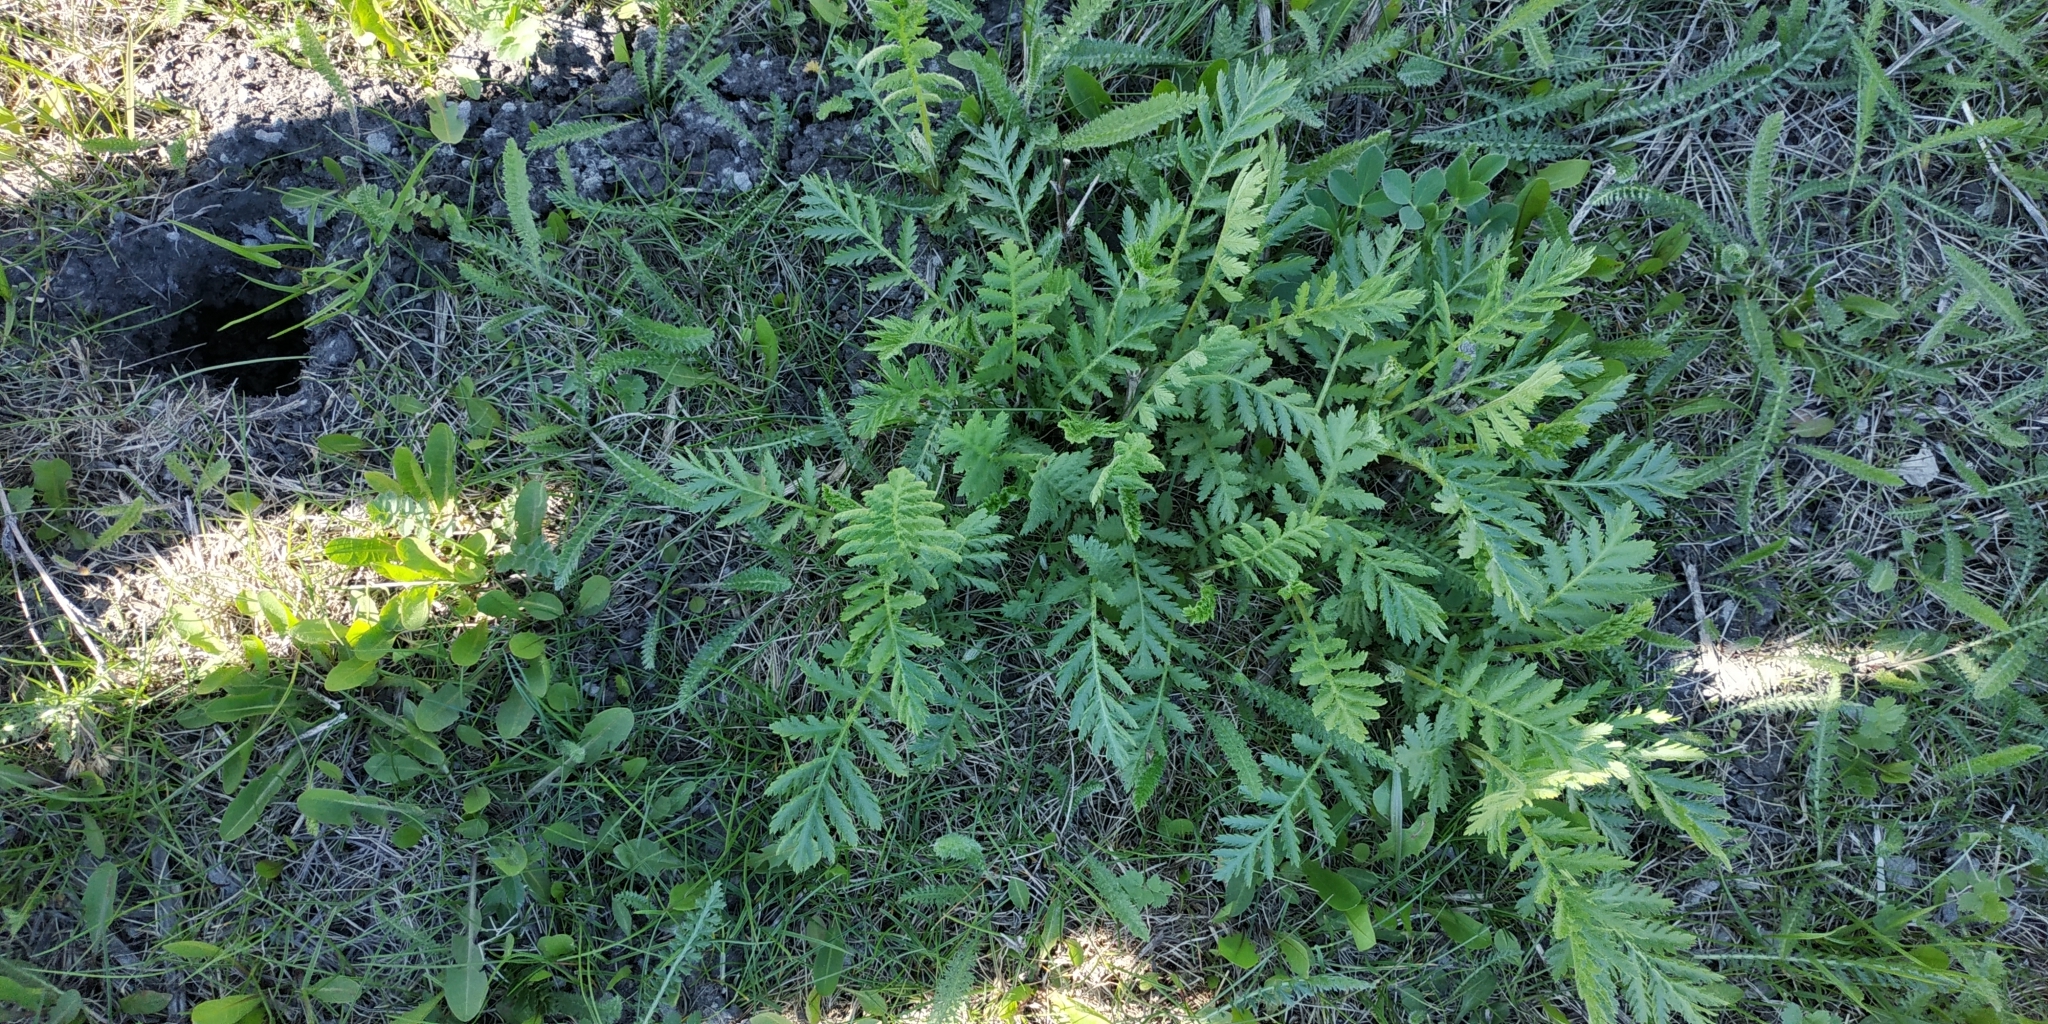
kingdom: Plantae
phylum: Tracheophyta
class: Magnoliopsida
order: Asterales
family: Asteraceae
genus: Tanacetum
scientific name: Tanacetum vulgare
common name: Common tansy
